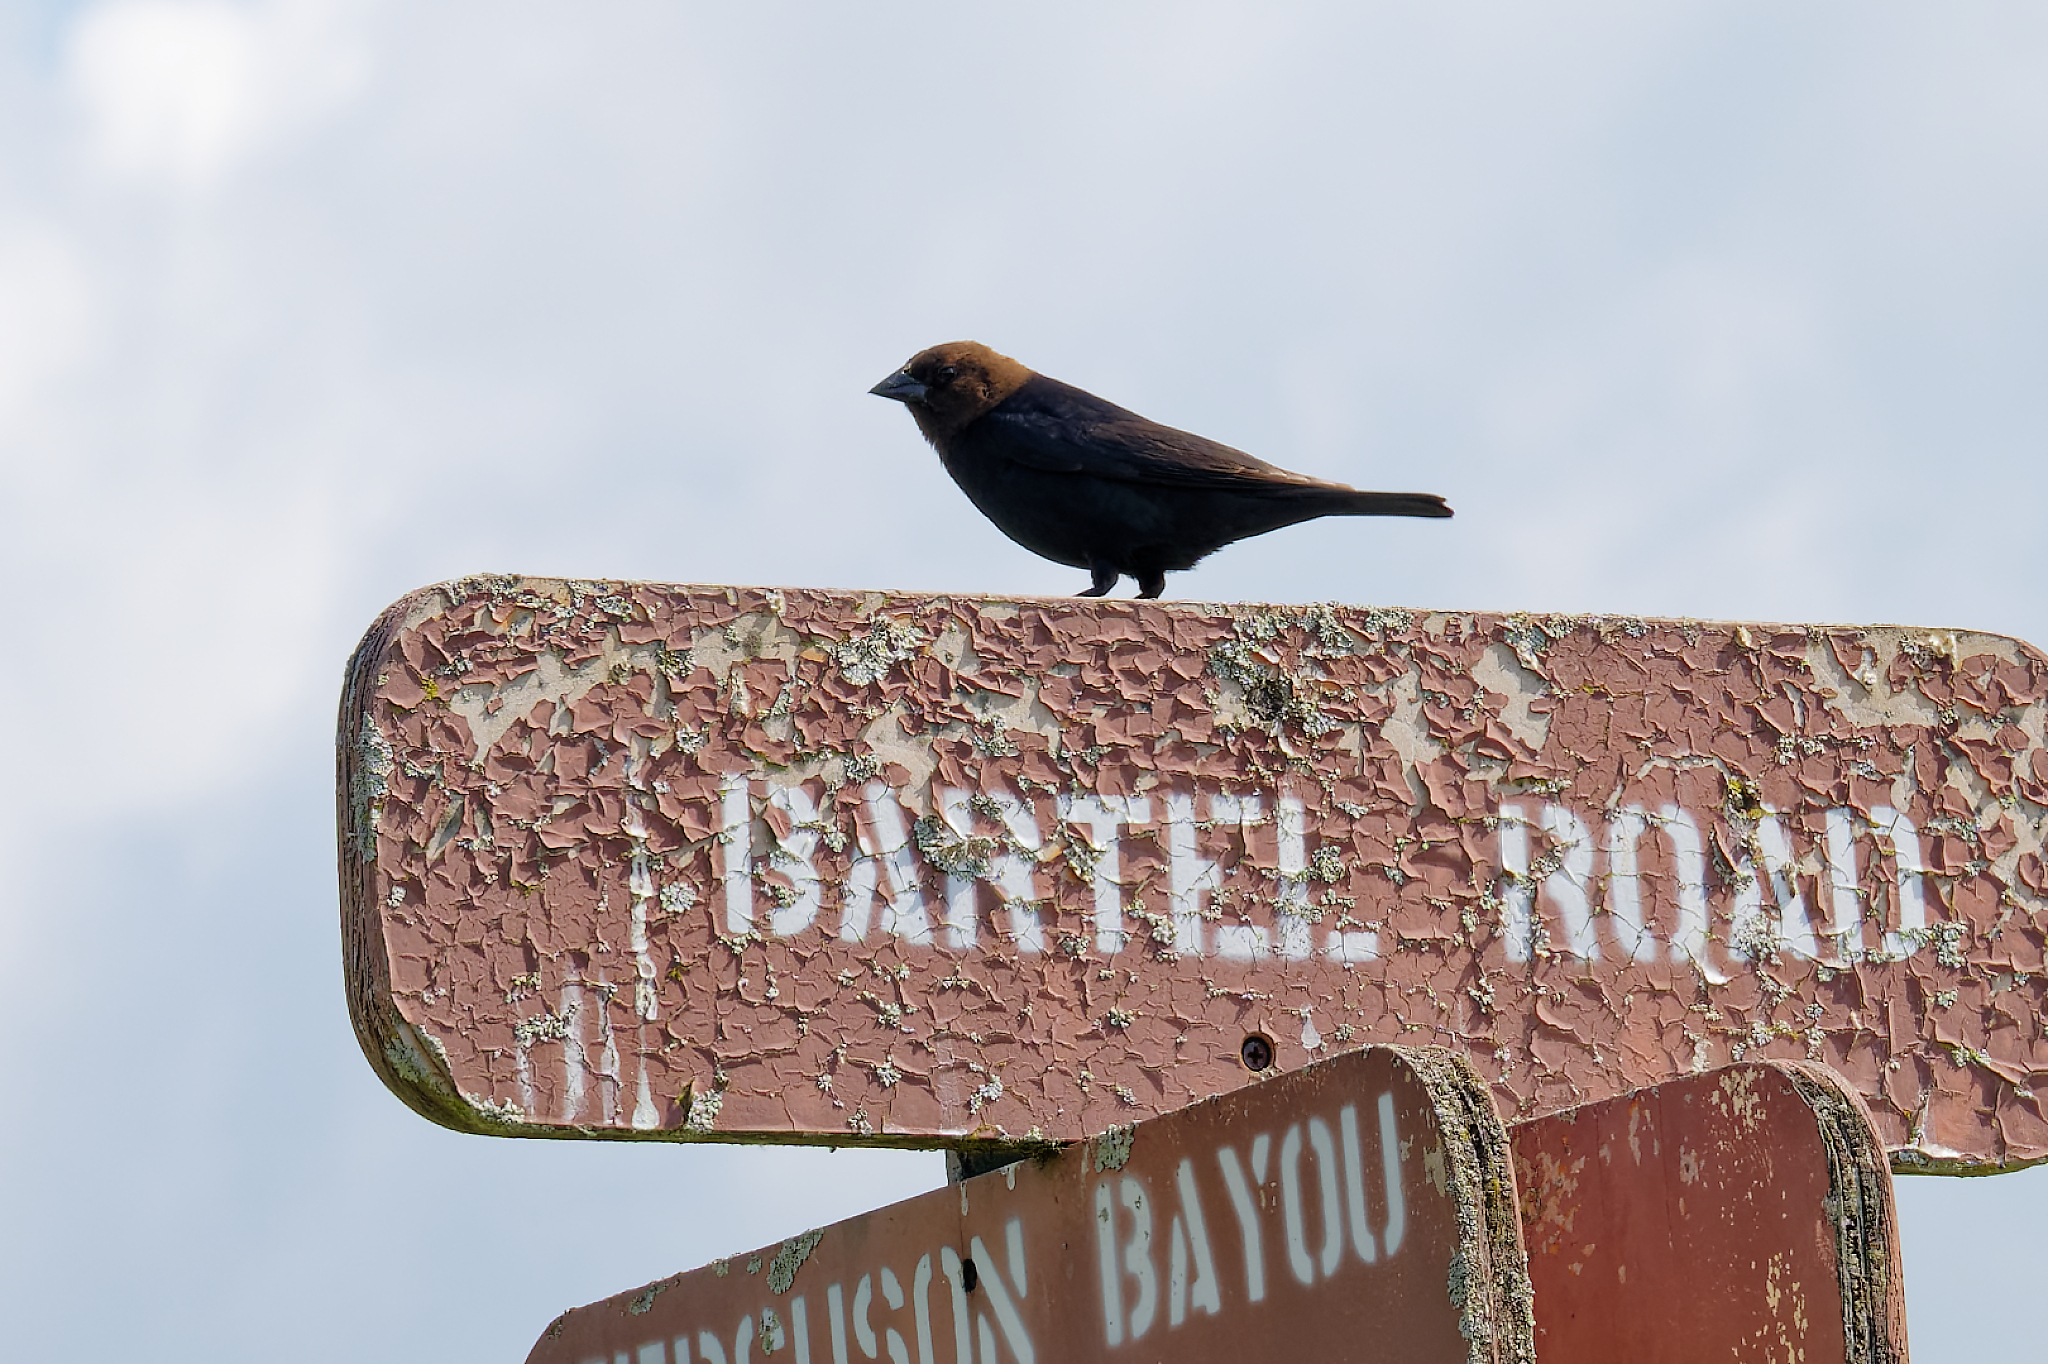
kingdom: Animalia
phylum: Chordata
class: Aves
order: Passeriformes
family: Icteridae
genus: Molothrus
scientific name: Molothrus ater
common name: Brown-headed cowbird
